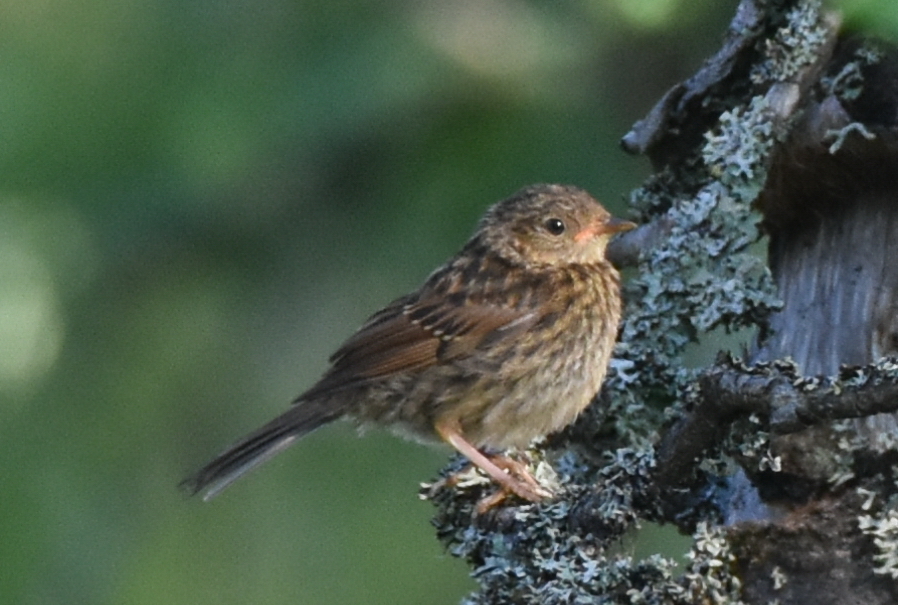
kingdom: Animalia
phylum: Chordata
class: Aves
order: Passeriformes
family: Prunellidae
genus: Prunella
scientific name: Prunella modularis
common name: Dunnock
